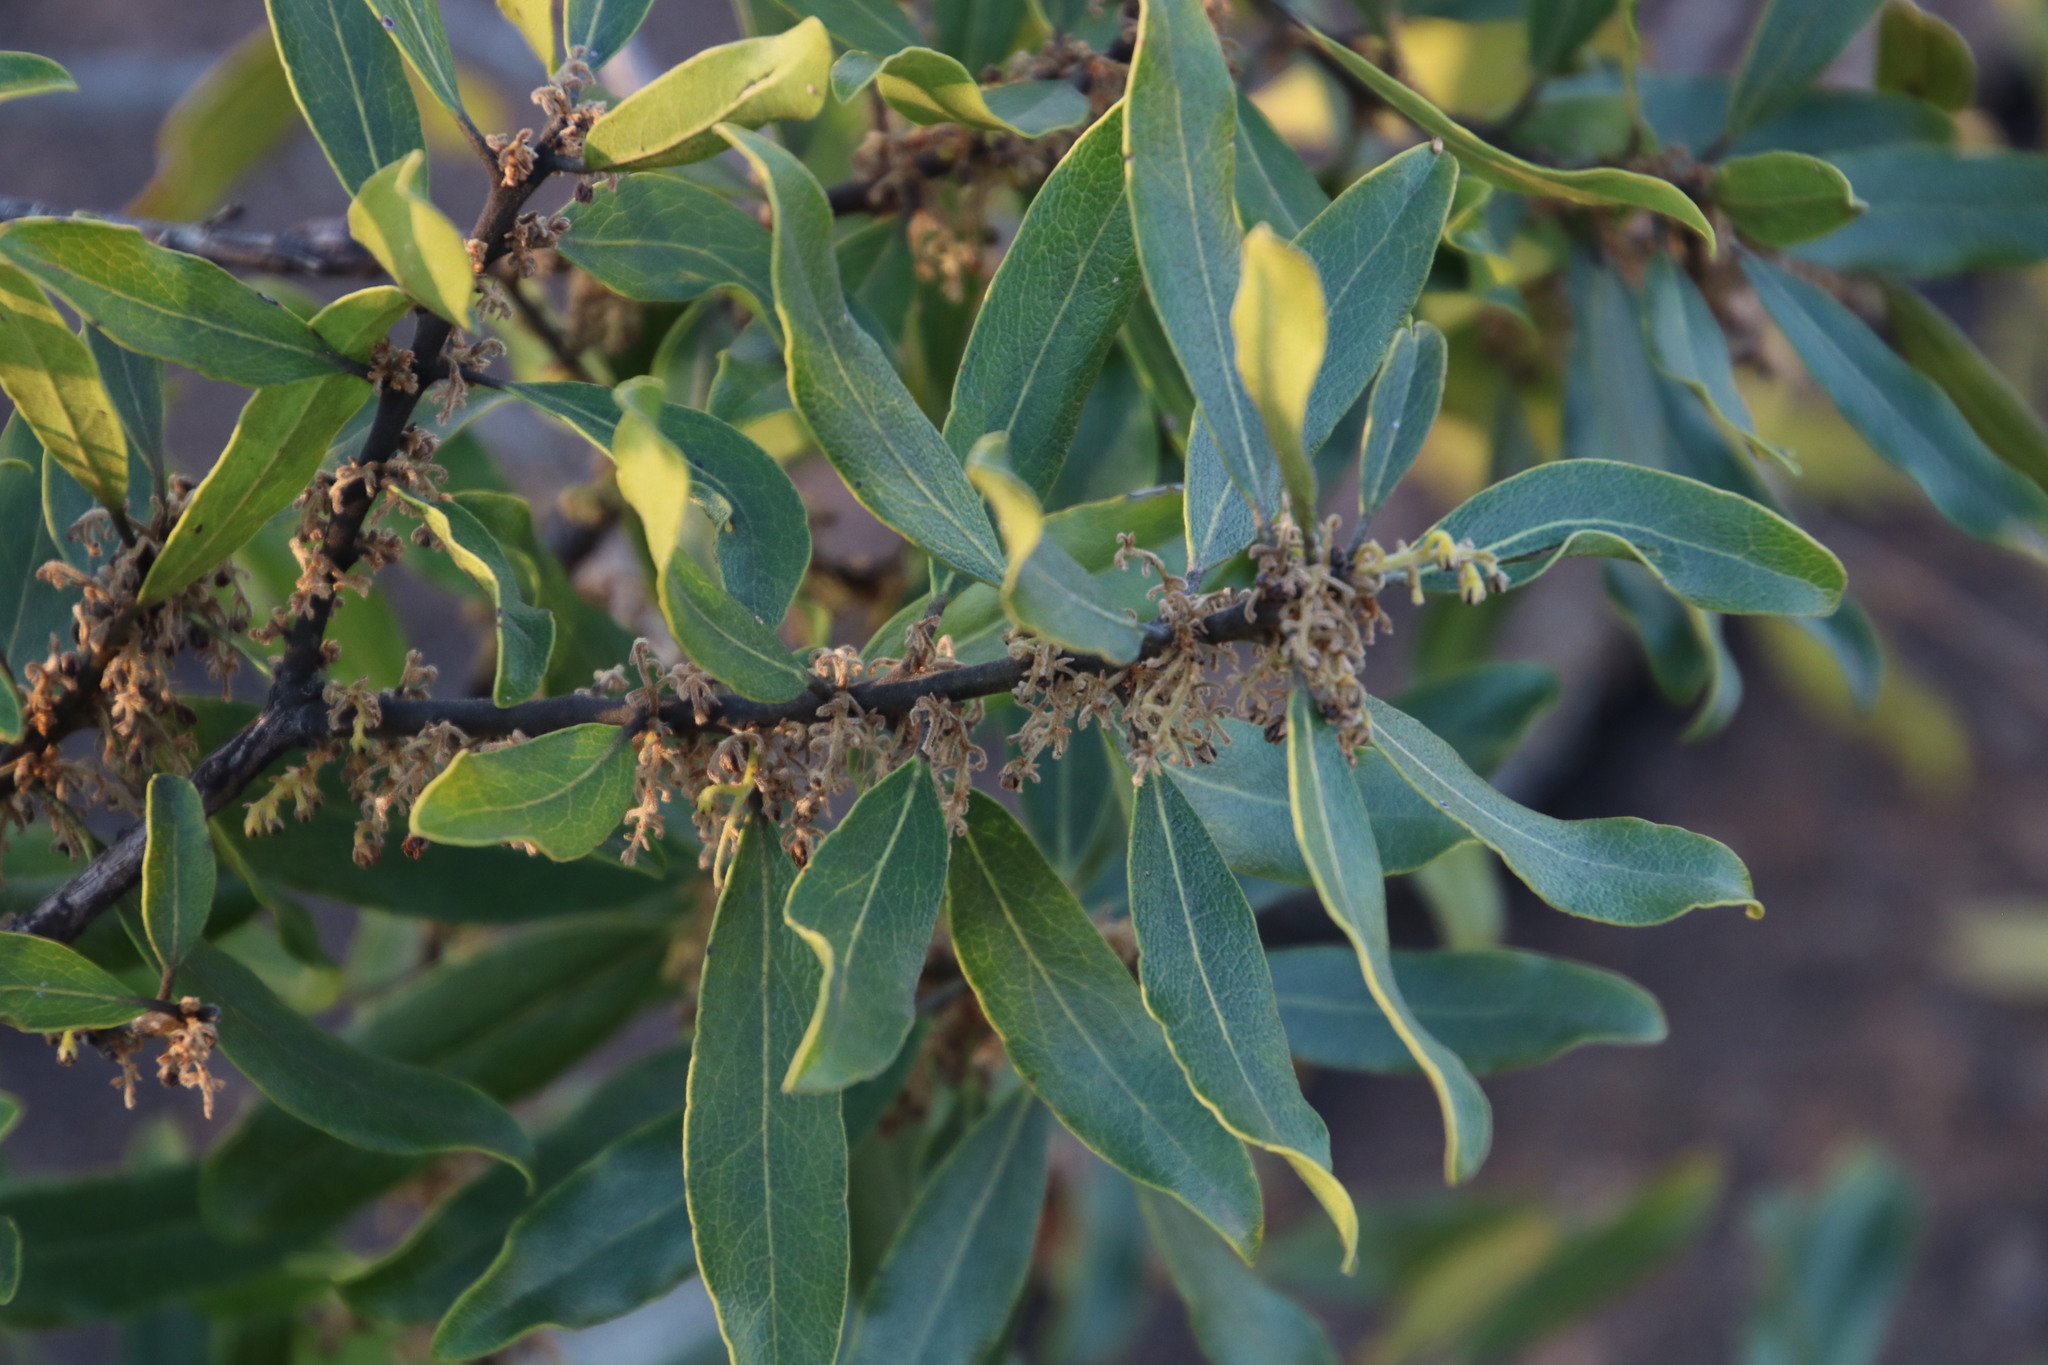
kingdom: Plantae
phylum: Tracheophyta
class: Magnoliopsida
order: Ericales
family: Ebenaceae
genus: Euclea
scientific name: Euclea natalensis
